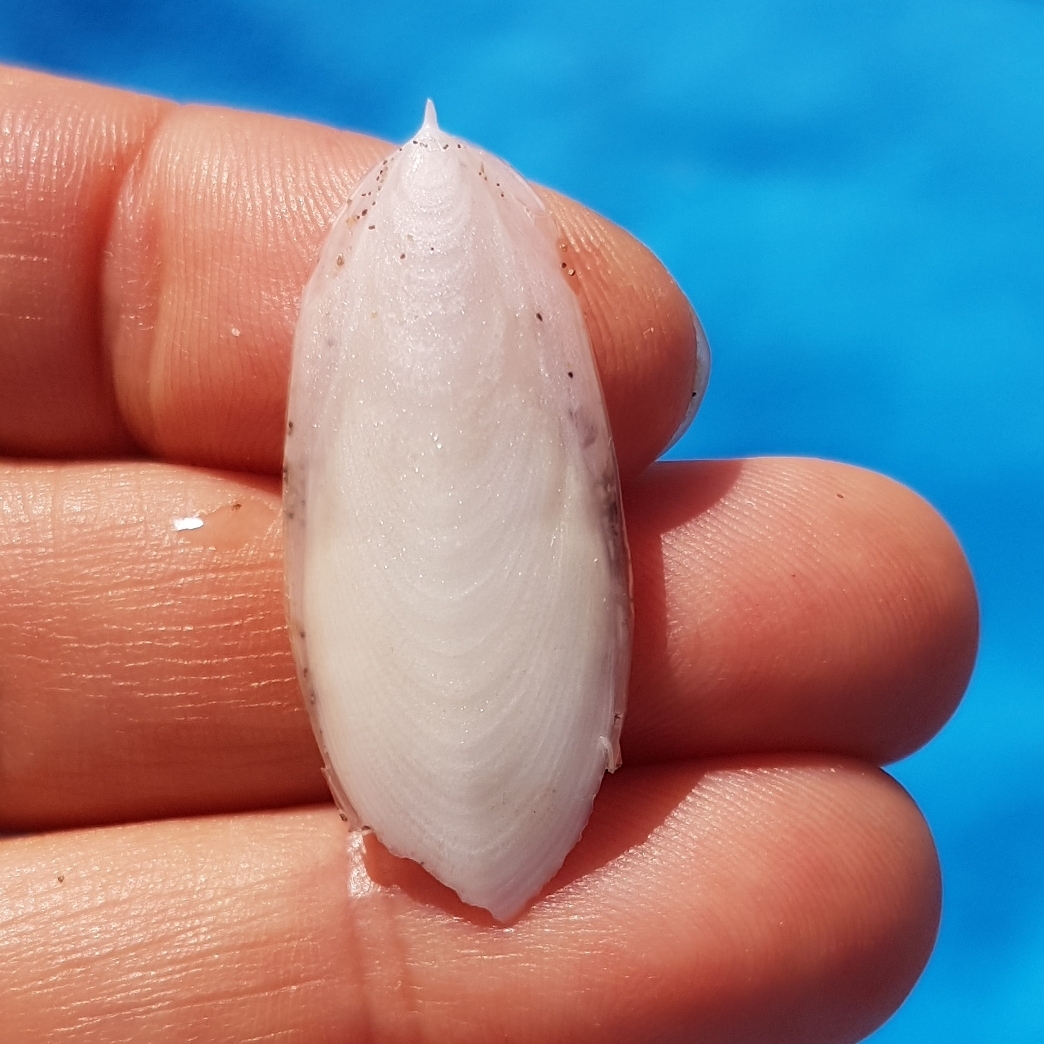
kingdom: Animalia
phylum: Mollusca
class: Cephalopoda
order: Sepiida
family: Sepiidae
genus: Sepia
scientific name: Sepia officinalis
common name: Common cuttlefish
